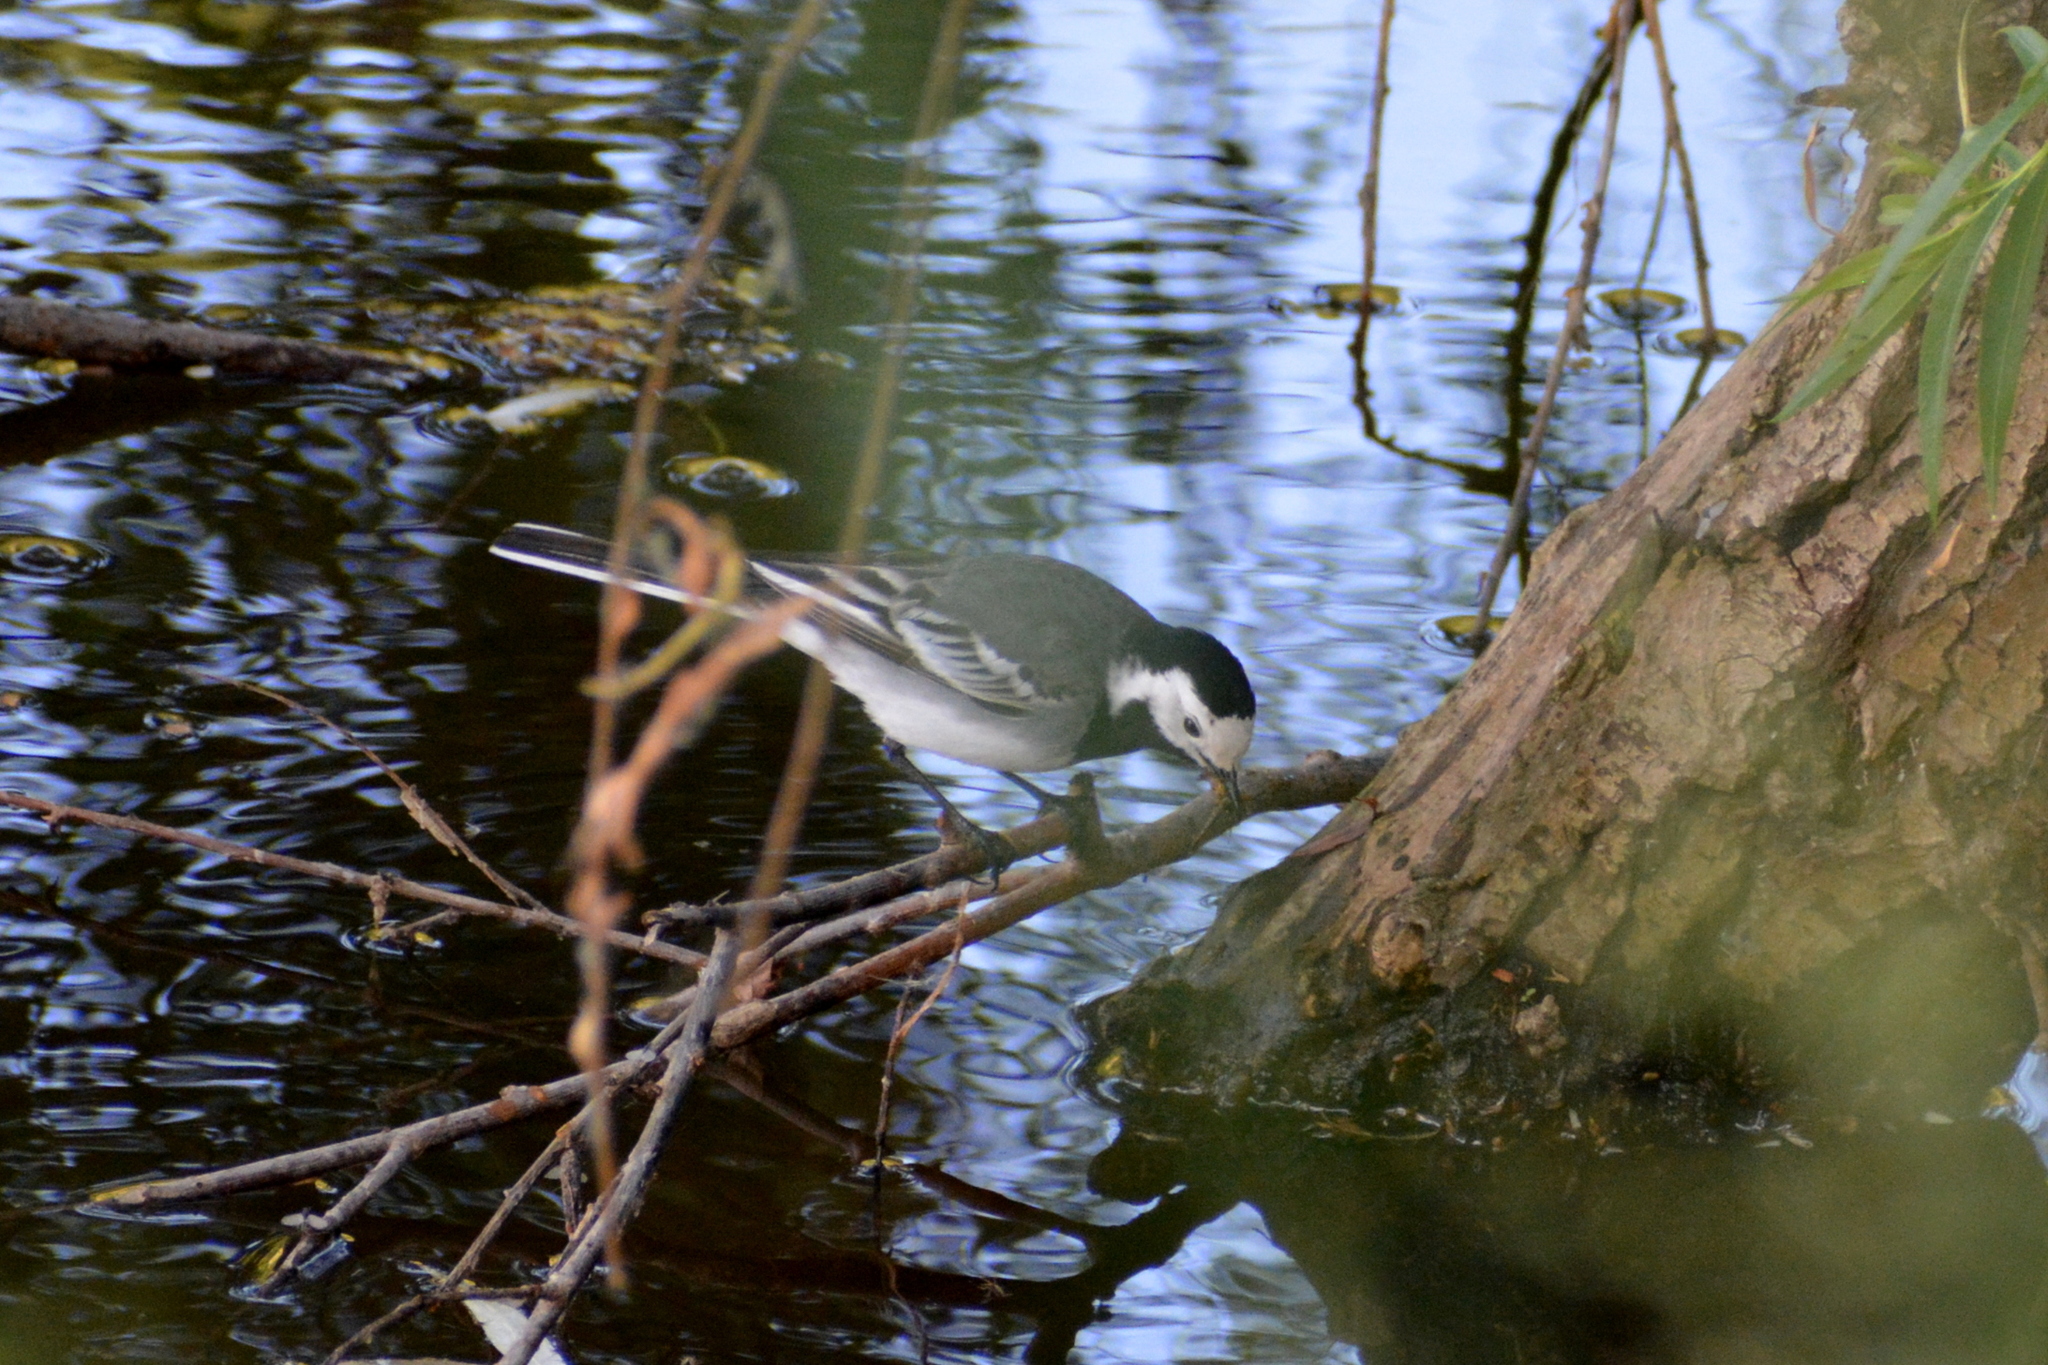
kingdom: Animalia
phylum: Chordata
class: Aves
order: Passeriformes
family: Motacillidae
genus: Motacilla
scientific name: Motacilla alba
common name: White wagtail
